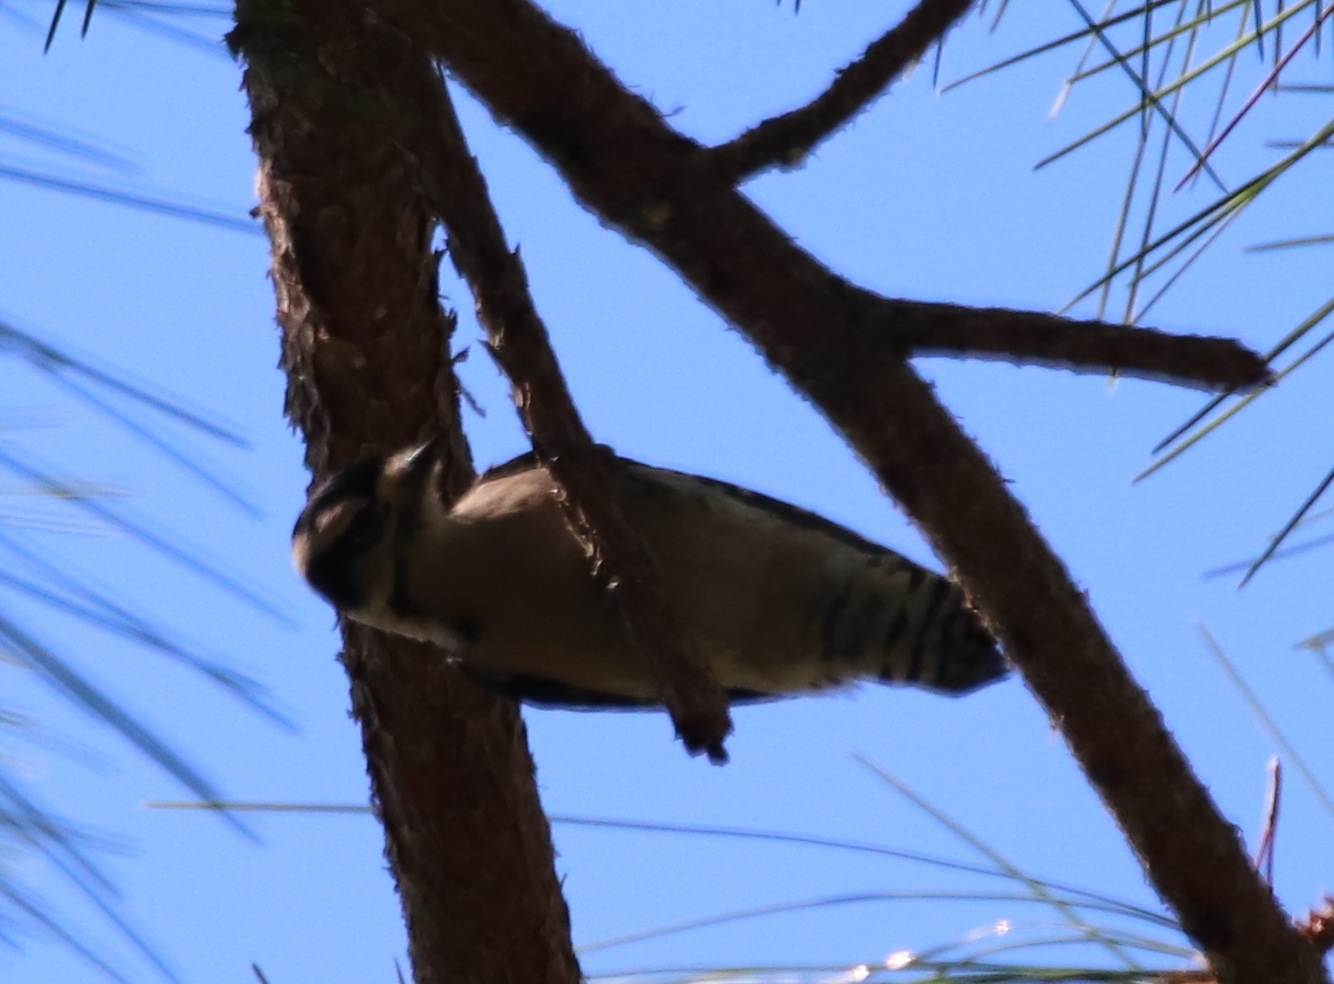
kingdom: Animalia
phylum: Chordata
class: Aves
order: Piciformes
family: Picidae
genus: Dryobates
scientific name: Dryobates pubescens
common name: Downy woodpecker
